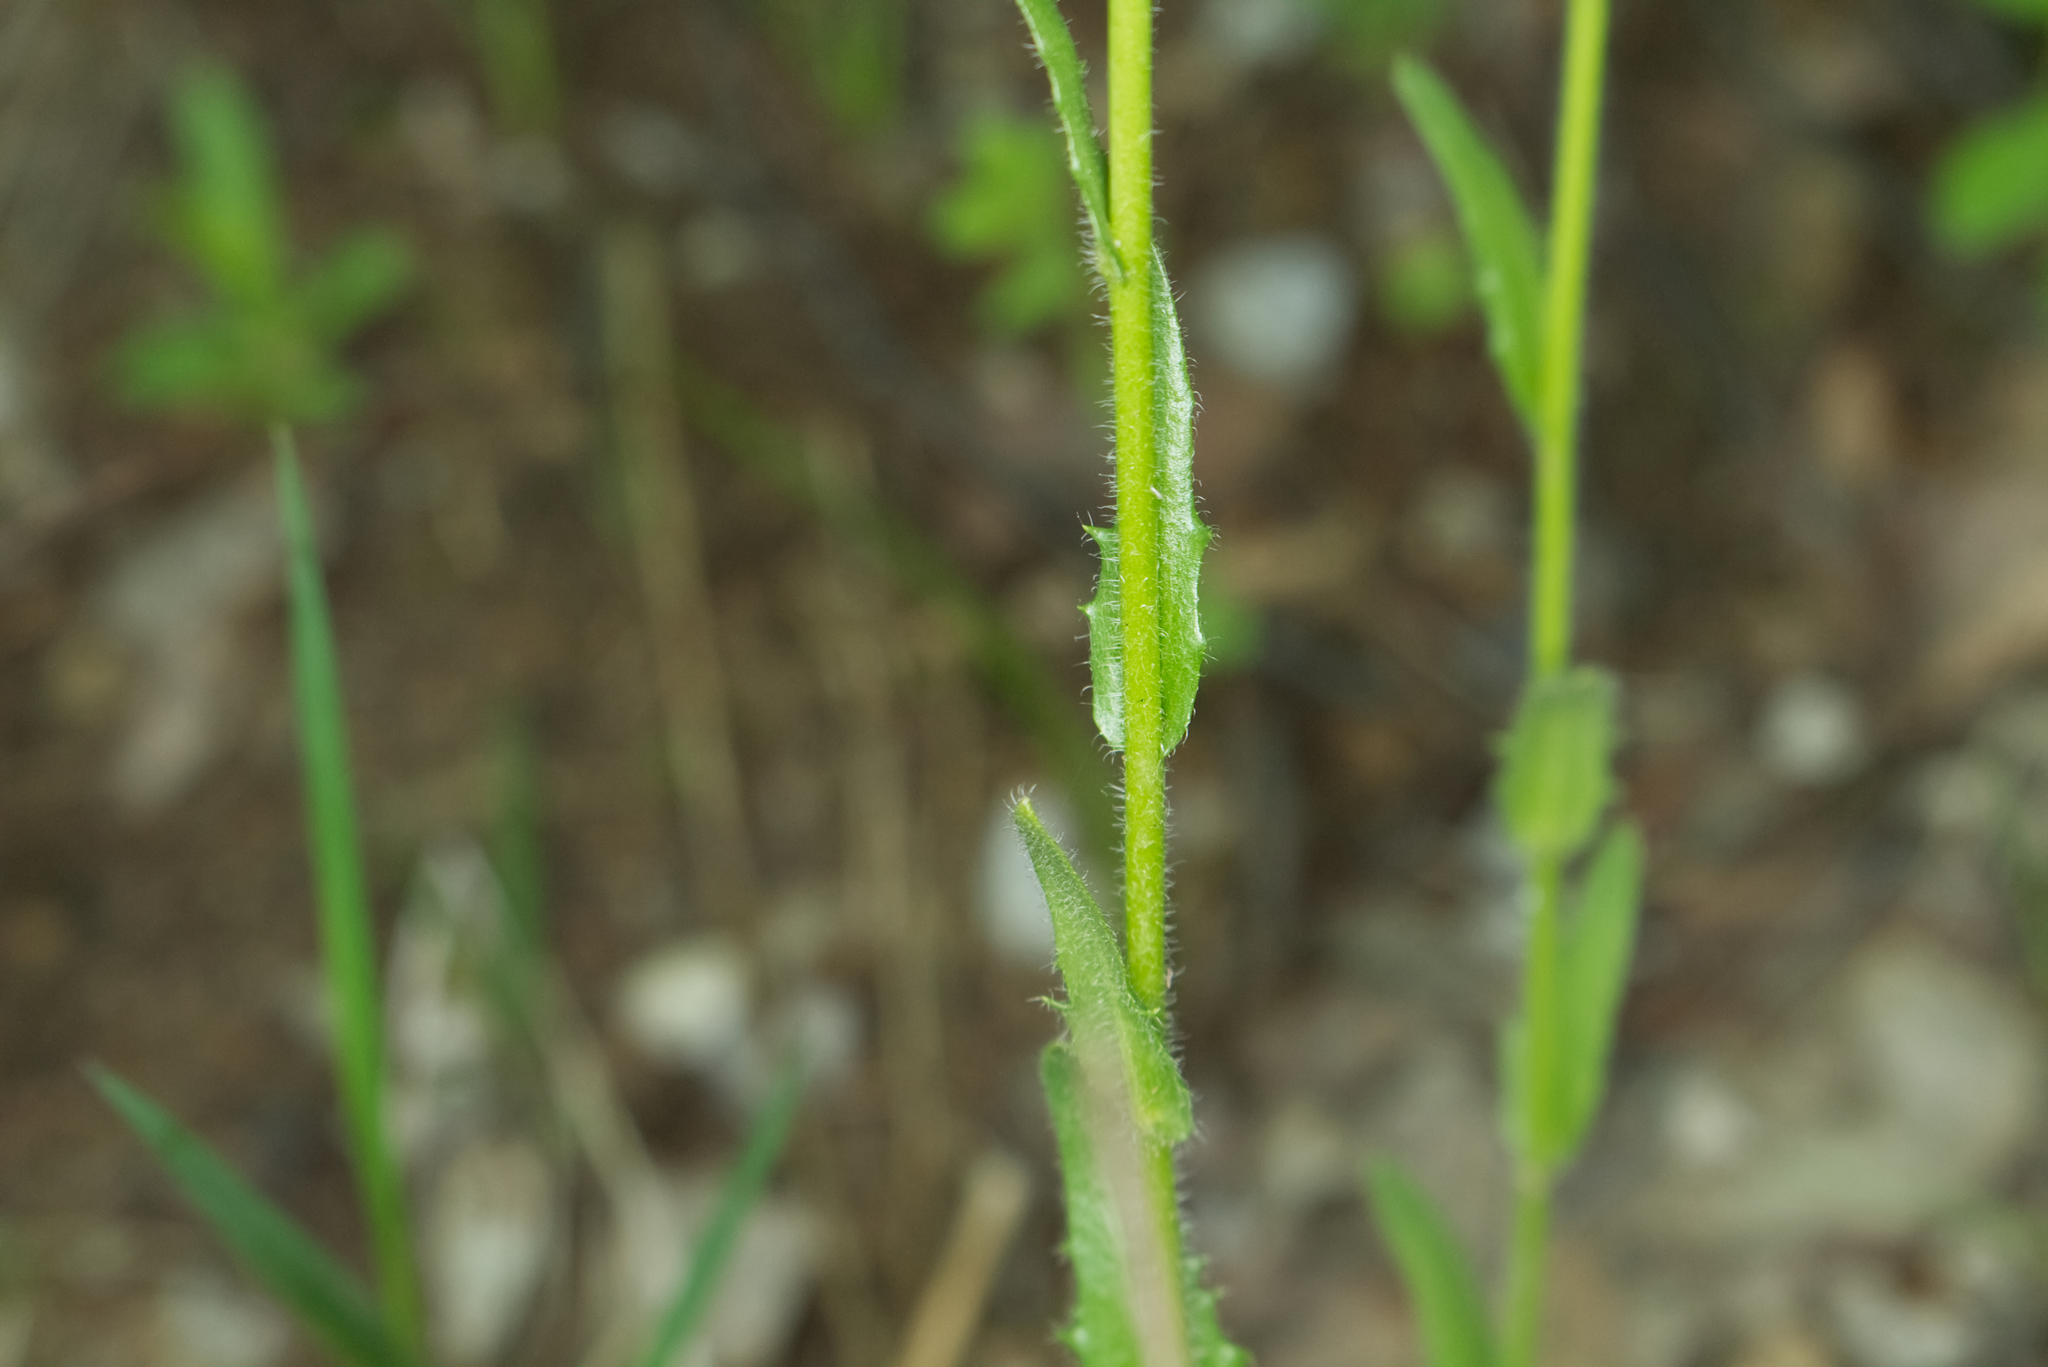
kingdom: Plantae
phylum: Tracheophyta
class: Magnoliopsida
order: Brassicales
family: Brassicaceae
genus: Arabis
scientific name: Arabis hirsuta
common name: Hairy rock-cress
